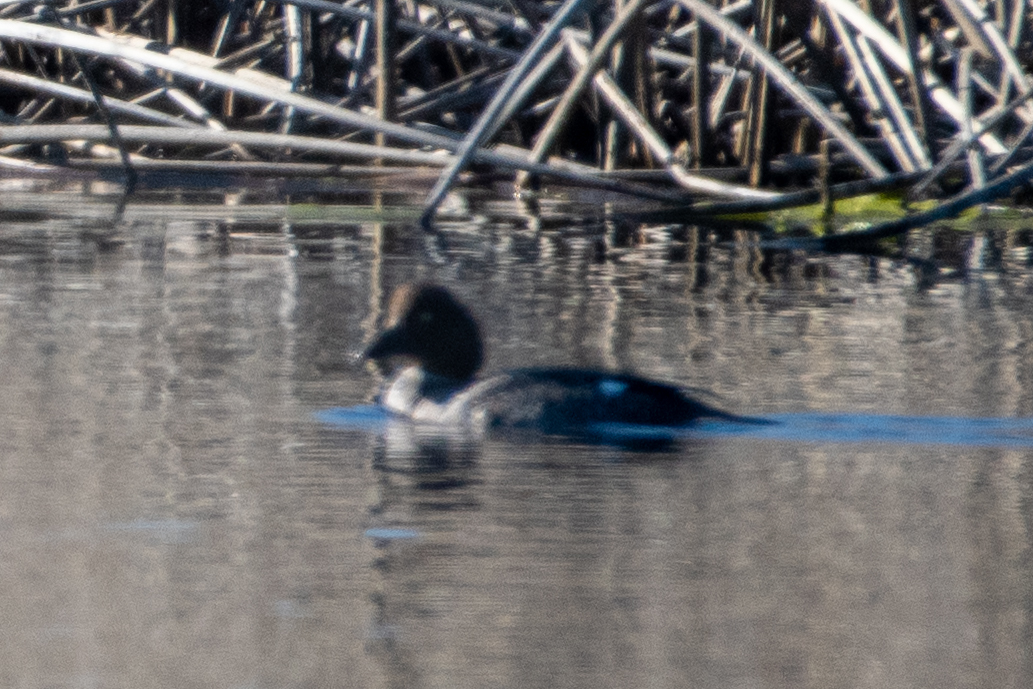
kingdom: Animalia
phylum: Chordata
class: Aves
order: Anseriformes
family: Anatidae
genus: Bucephala
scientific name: Bucephala clangula
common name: Common goldeneye
